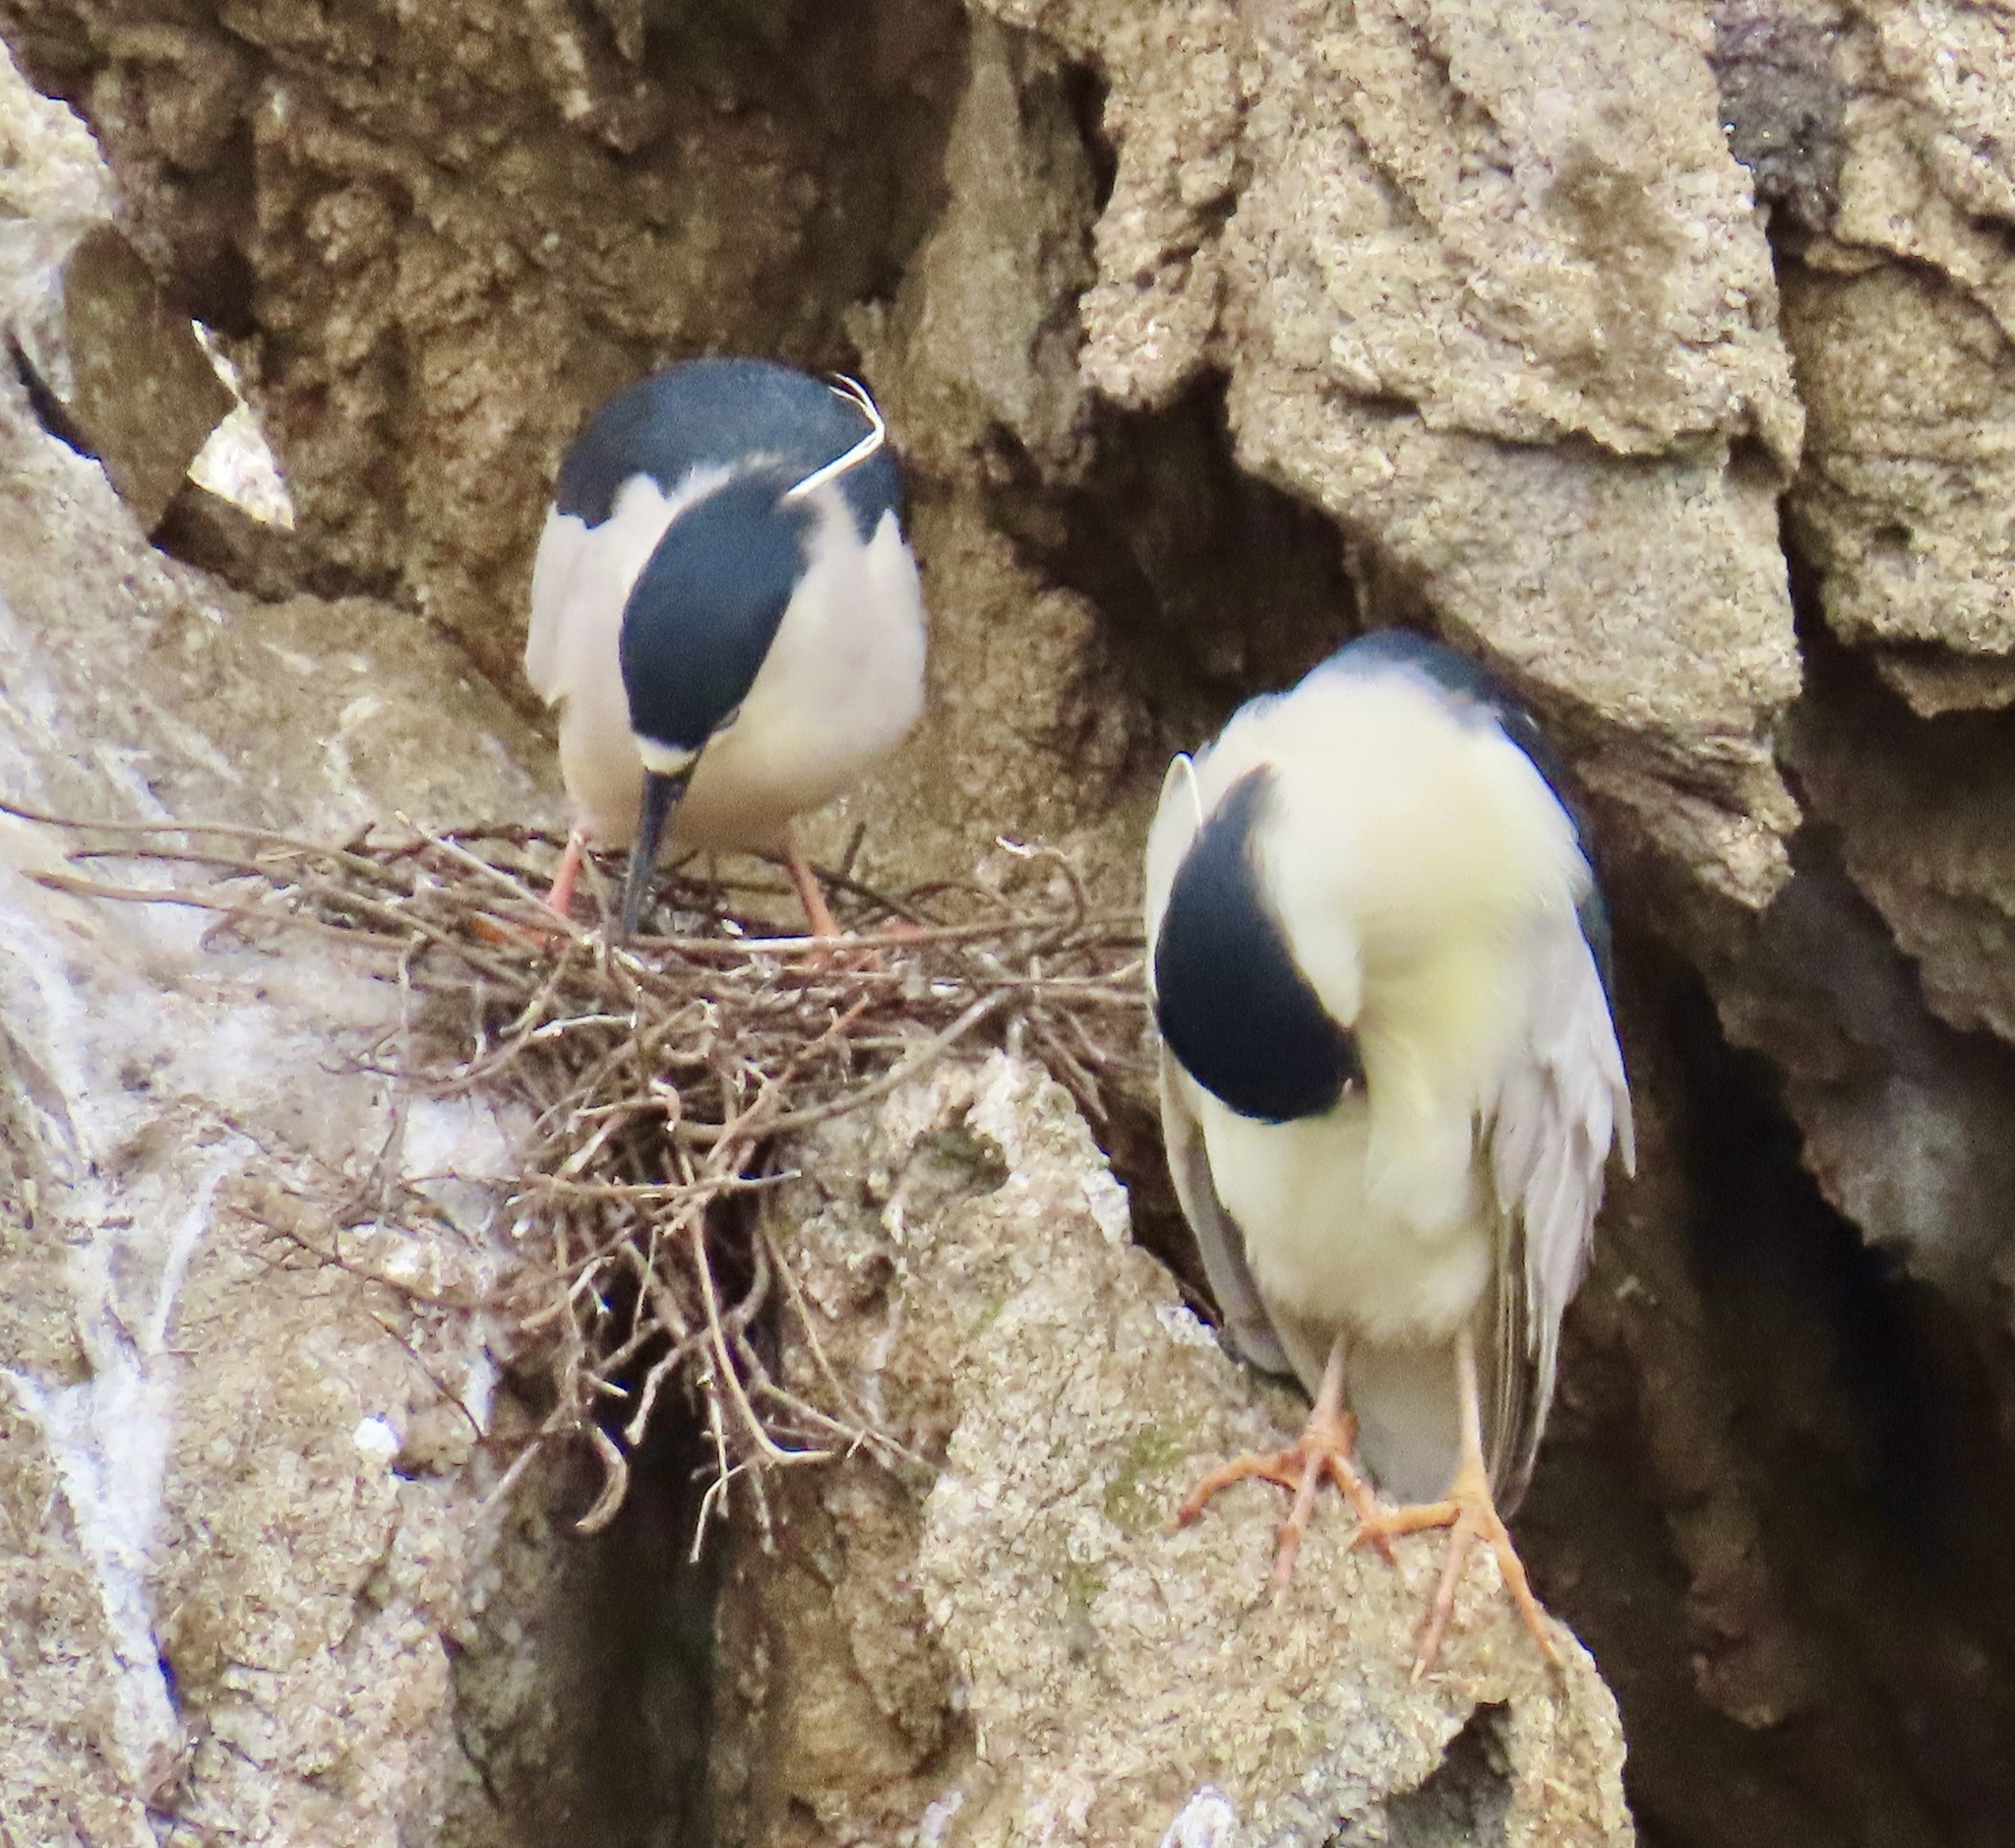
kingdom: Animalia
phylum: Chordata
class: Aves
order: Pelecaniformes
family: Ardeidae
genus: Nycticorax
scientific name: Nycticorax nycticorax
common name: Black-crowned night heron
